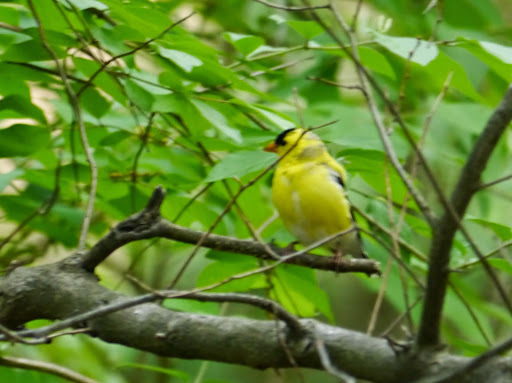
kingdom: Animalia
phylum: Chordata
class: Aves
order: Passeriformes
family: Fringillidae
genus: Spinus
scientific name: Spinus tristis
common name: American goldfinch
